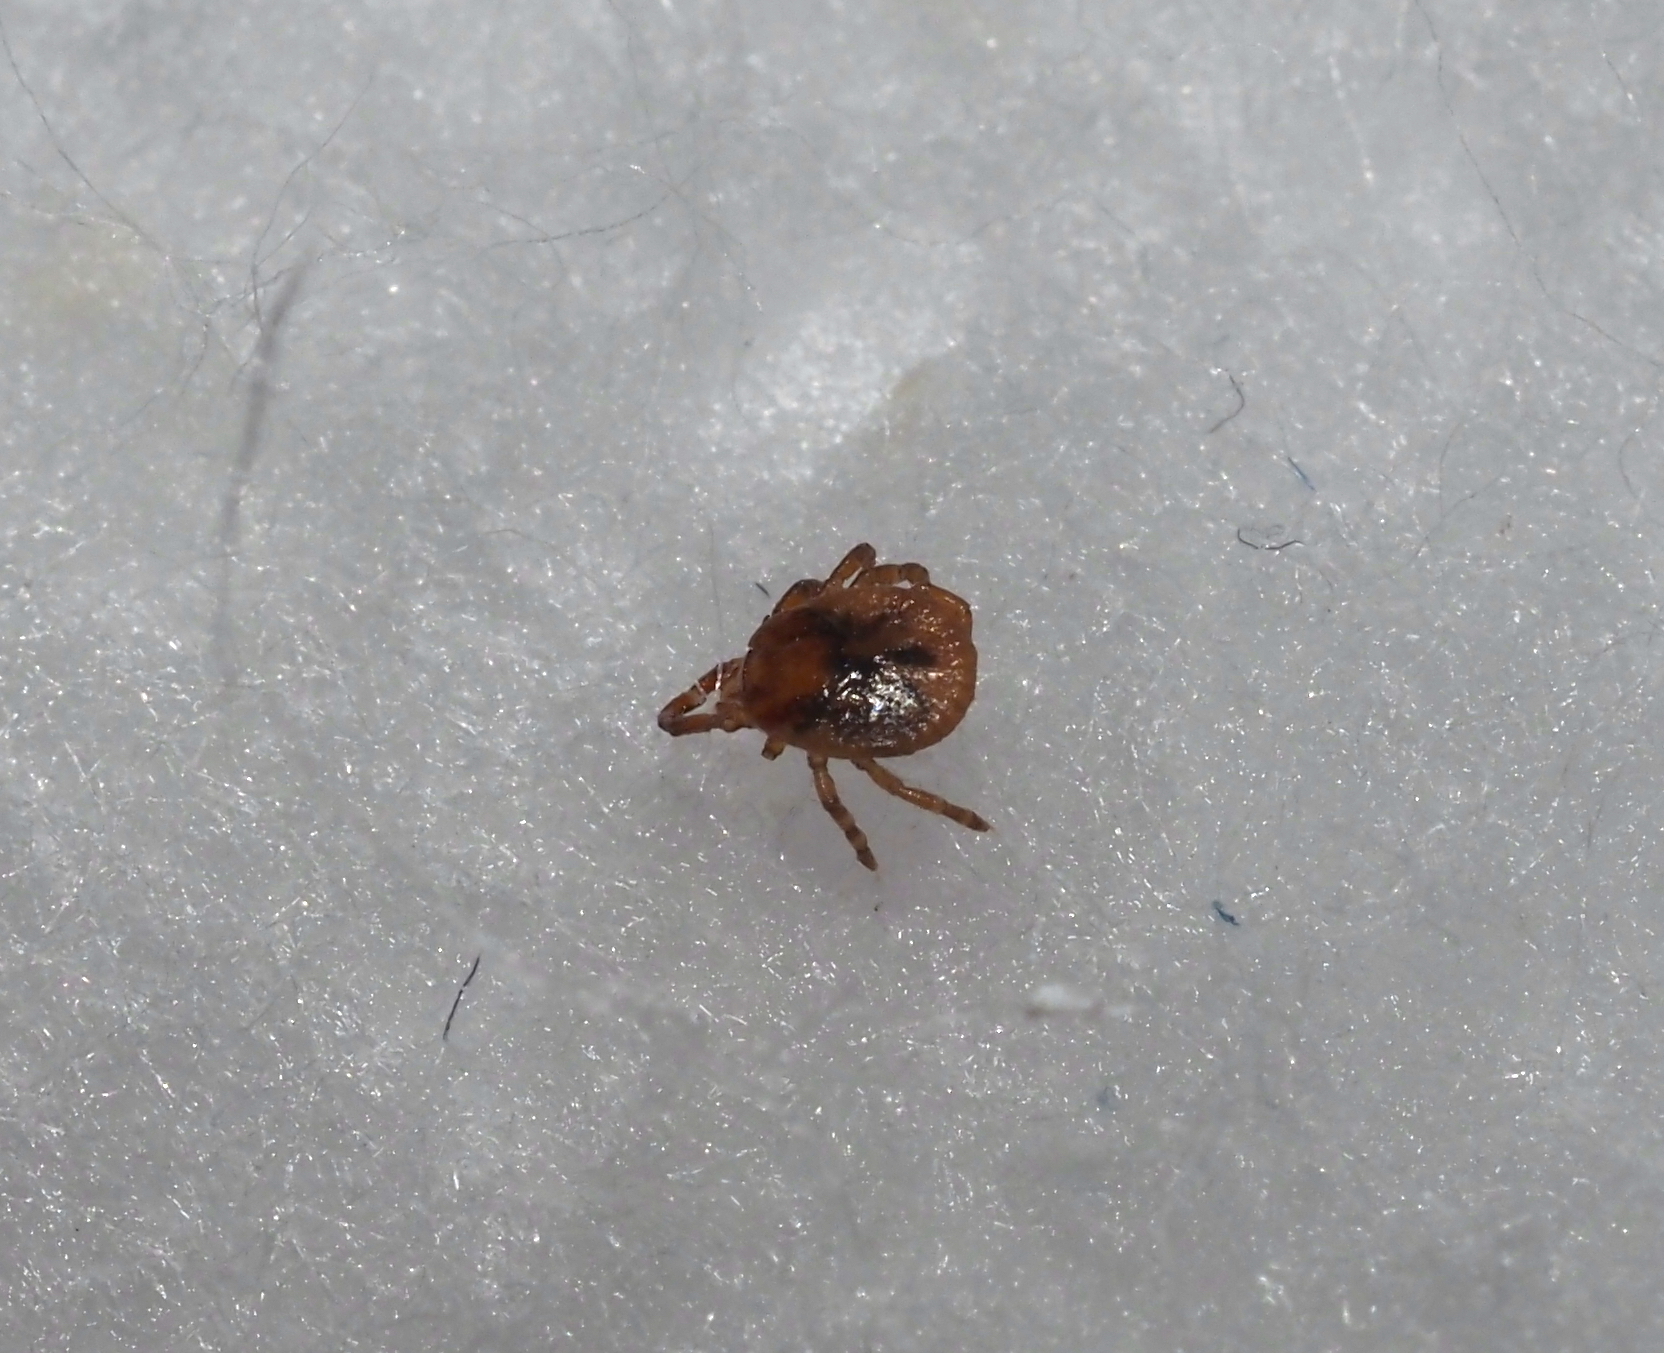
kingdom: Animalia
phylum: Arthropoda
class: Arachnida
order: Ixodida
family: Ixodidae
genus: Amblyomma
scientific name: Amblyomma americanum
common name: Lone star tick
